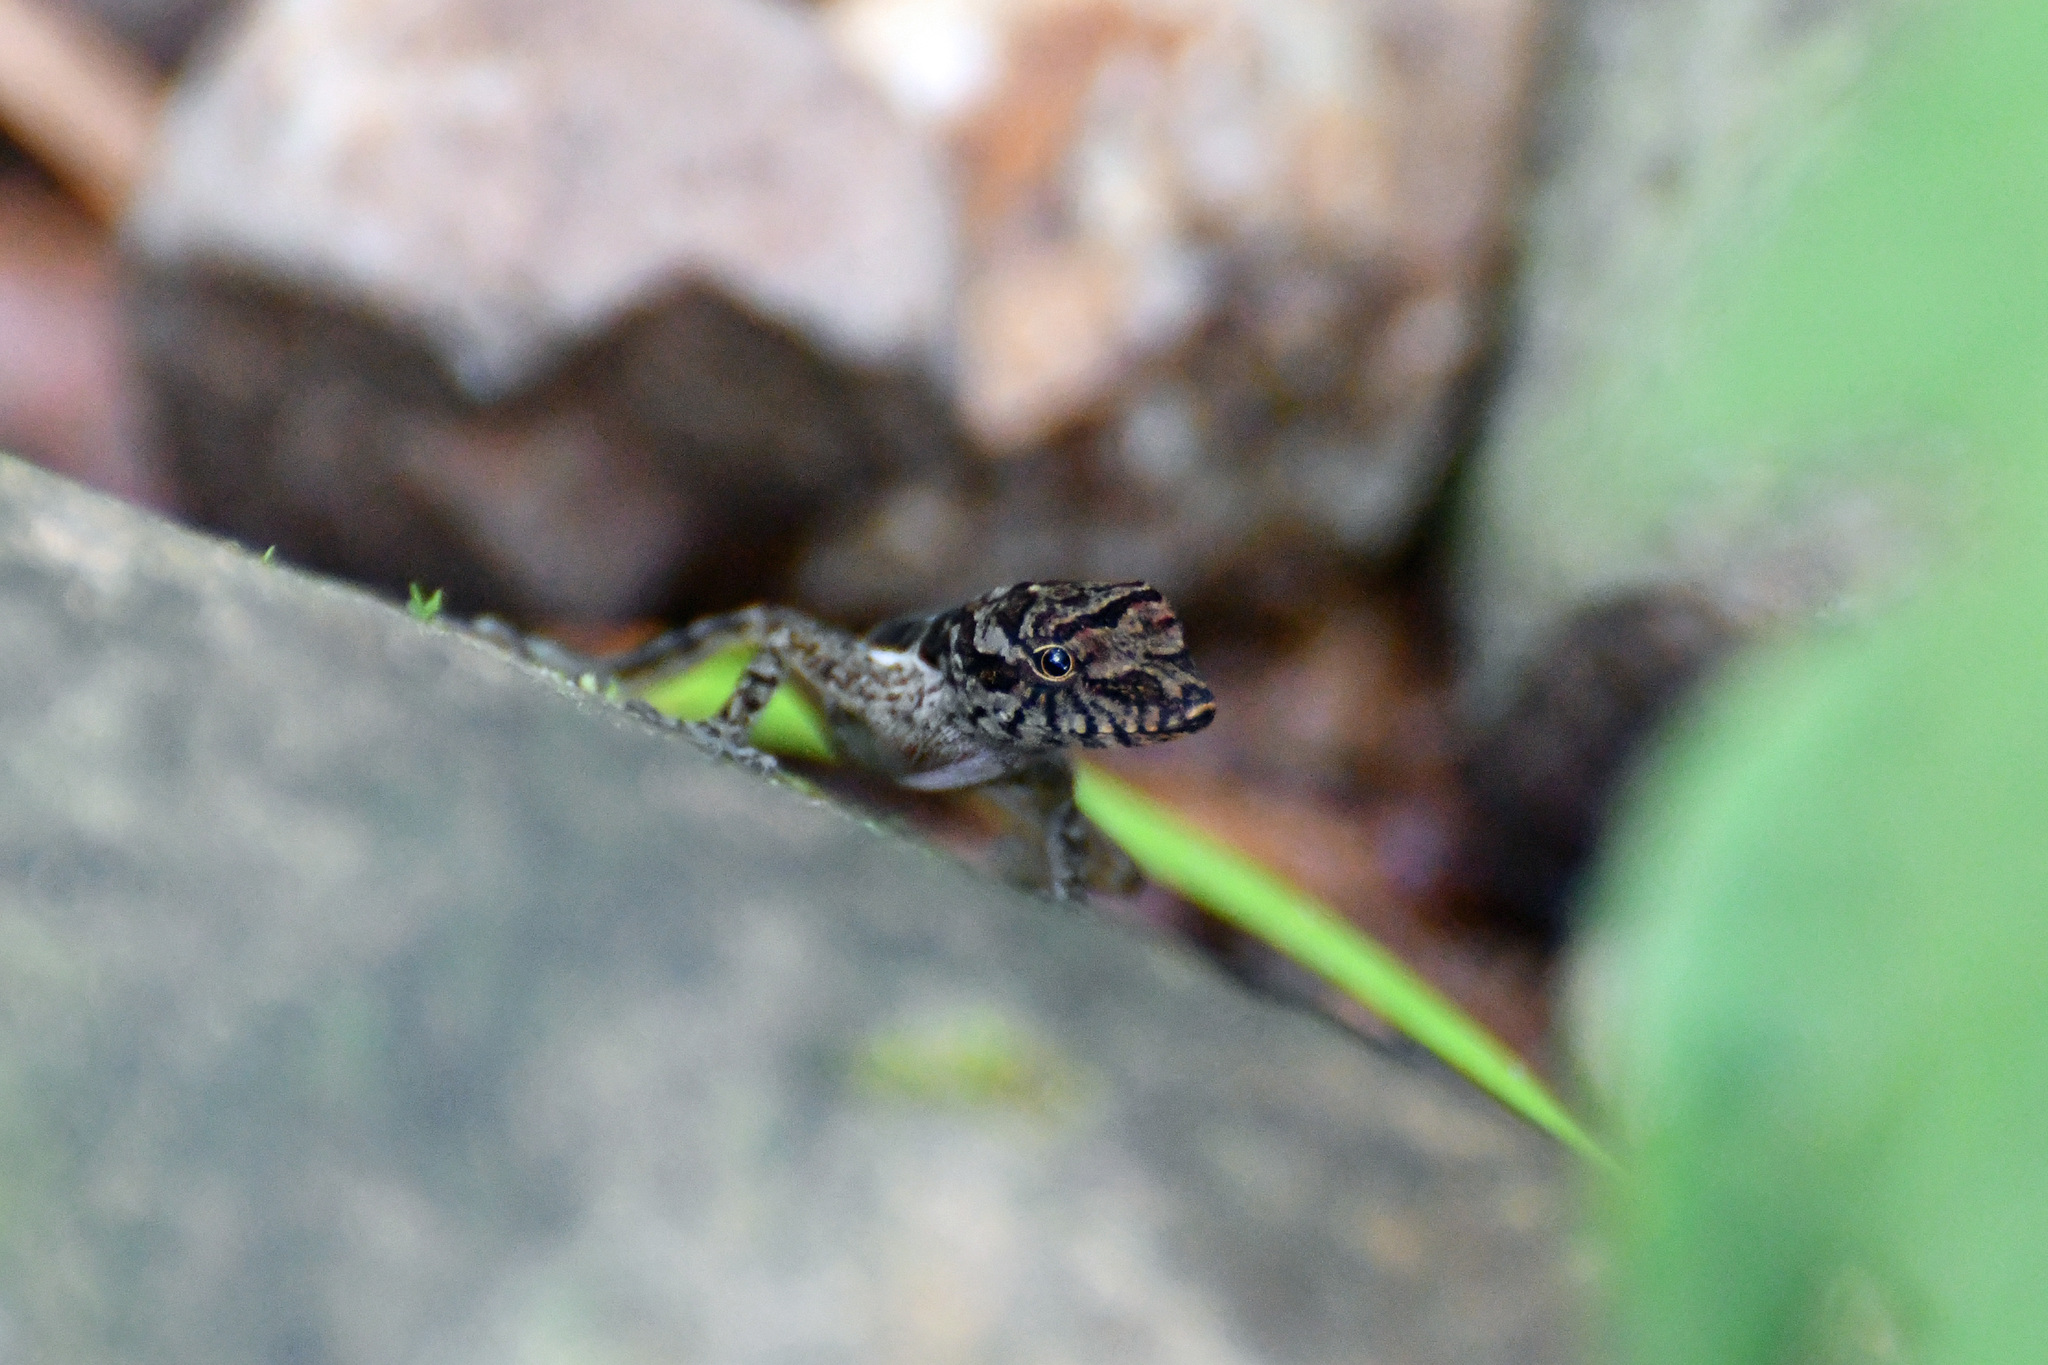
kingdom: Animalia
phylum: Chordata
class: Squamata
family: Dactyloidae
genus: Anolis
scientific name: Anolis cupreus
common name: Copper anole
